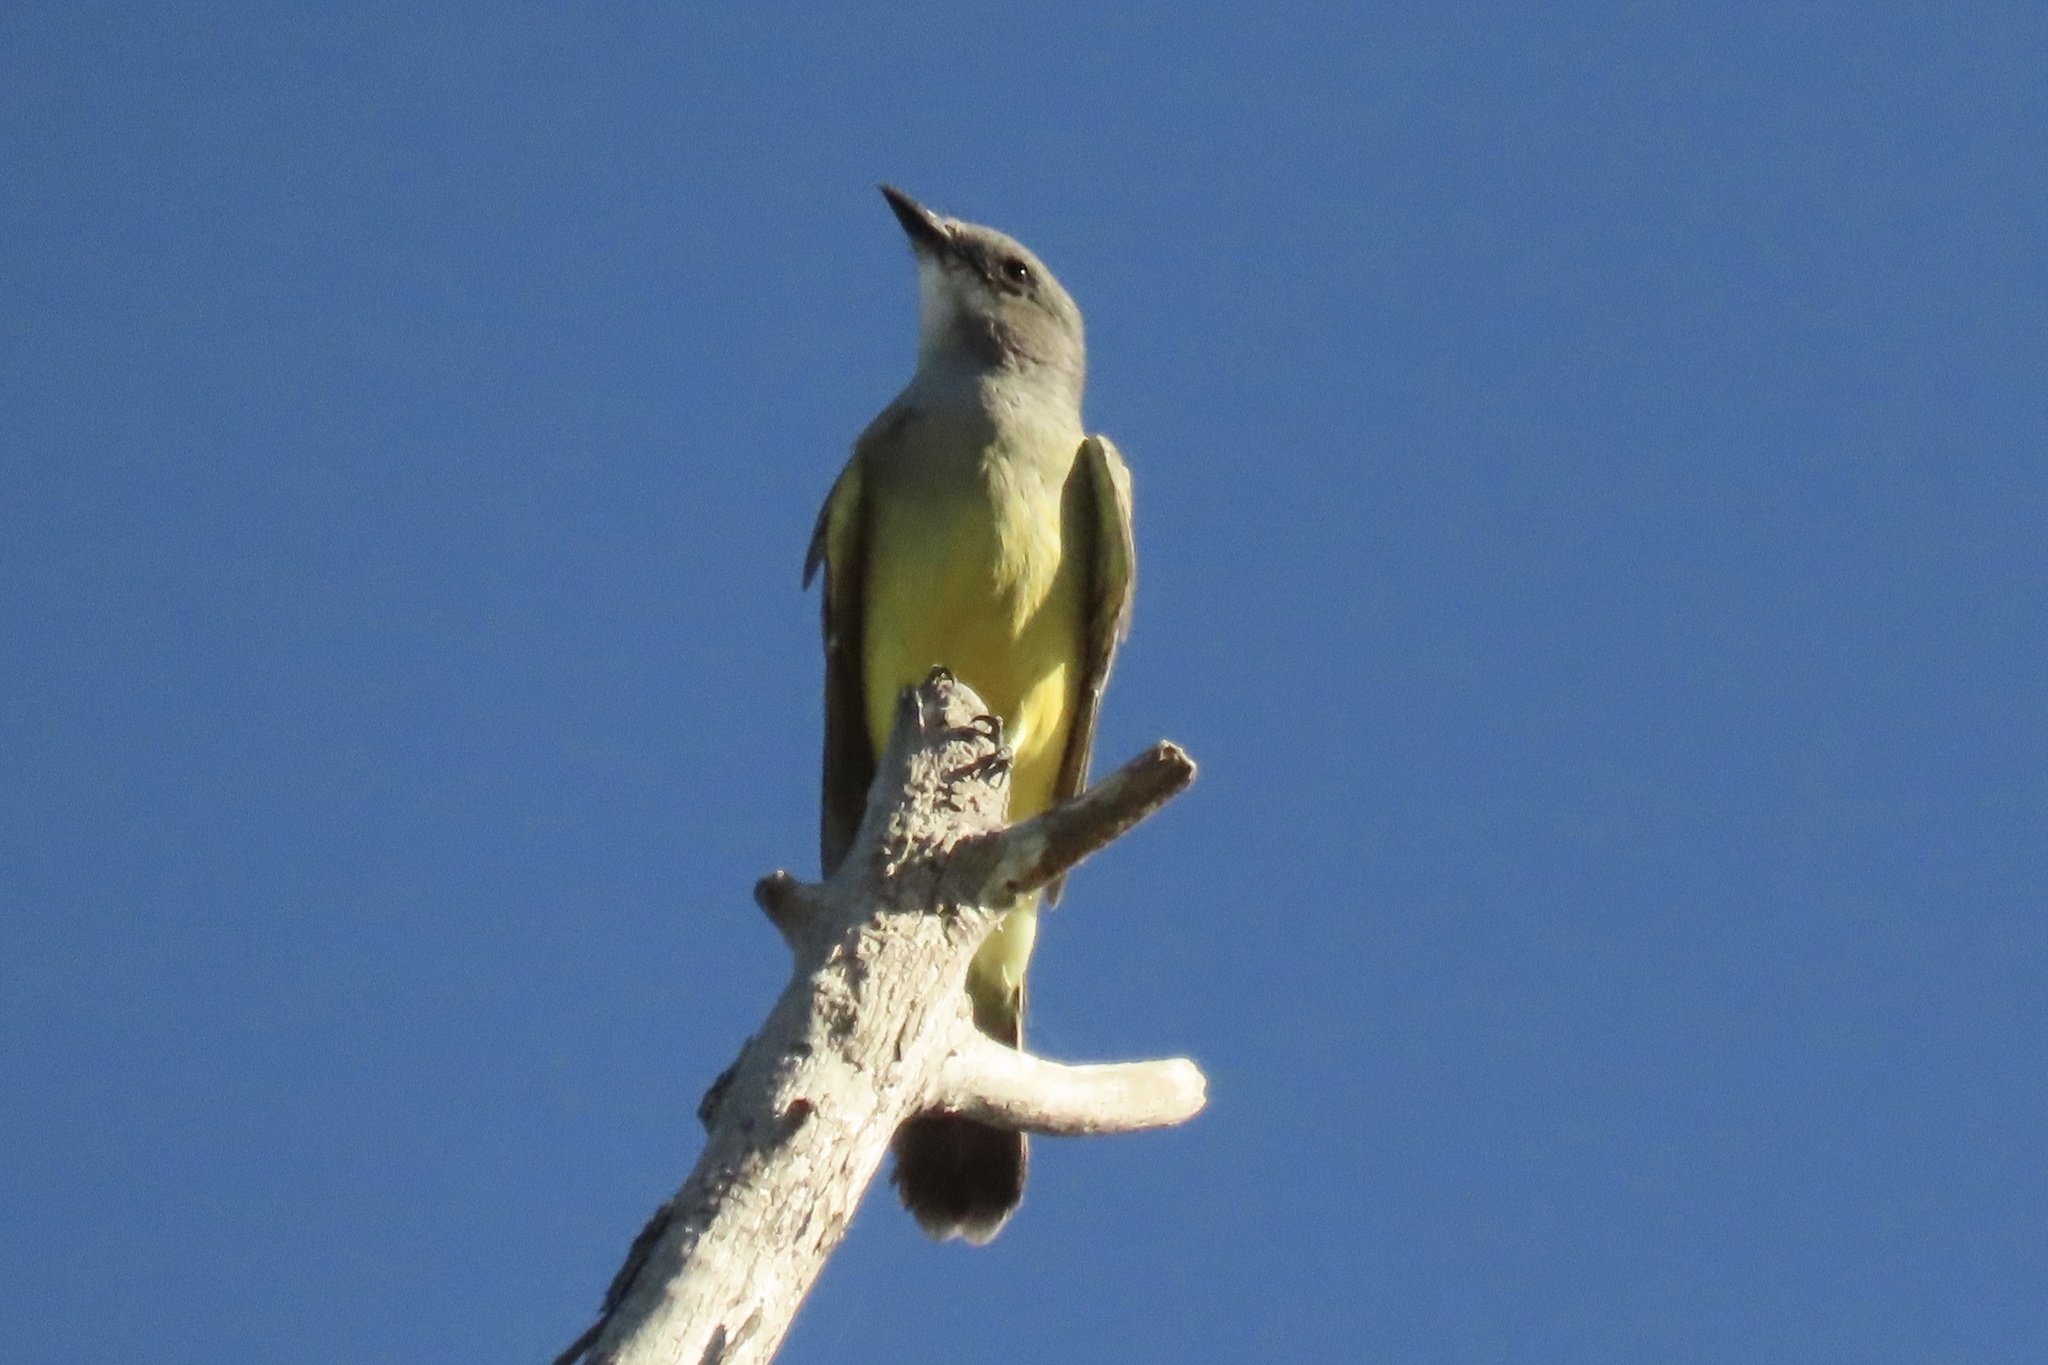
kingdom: Animalia
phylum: Chordata
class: Aves
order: Passeriformes
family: Tyrannidae
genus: Tyrannus
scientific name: Tyrannus vociferans
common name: Cassin's kingbird
